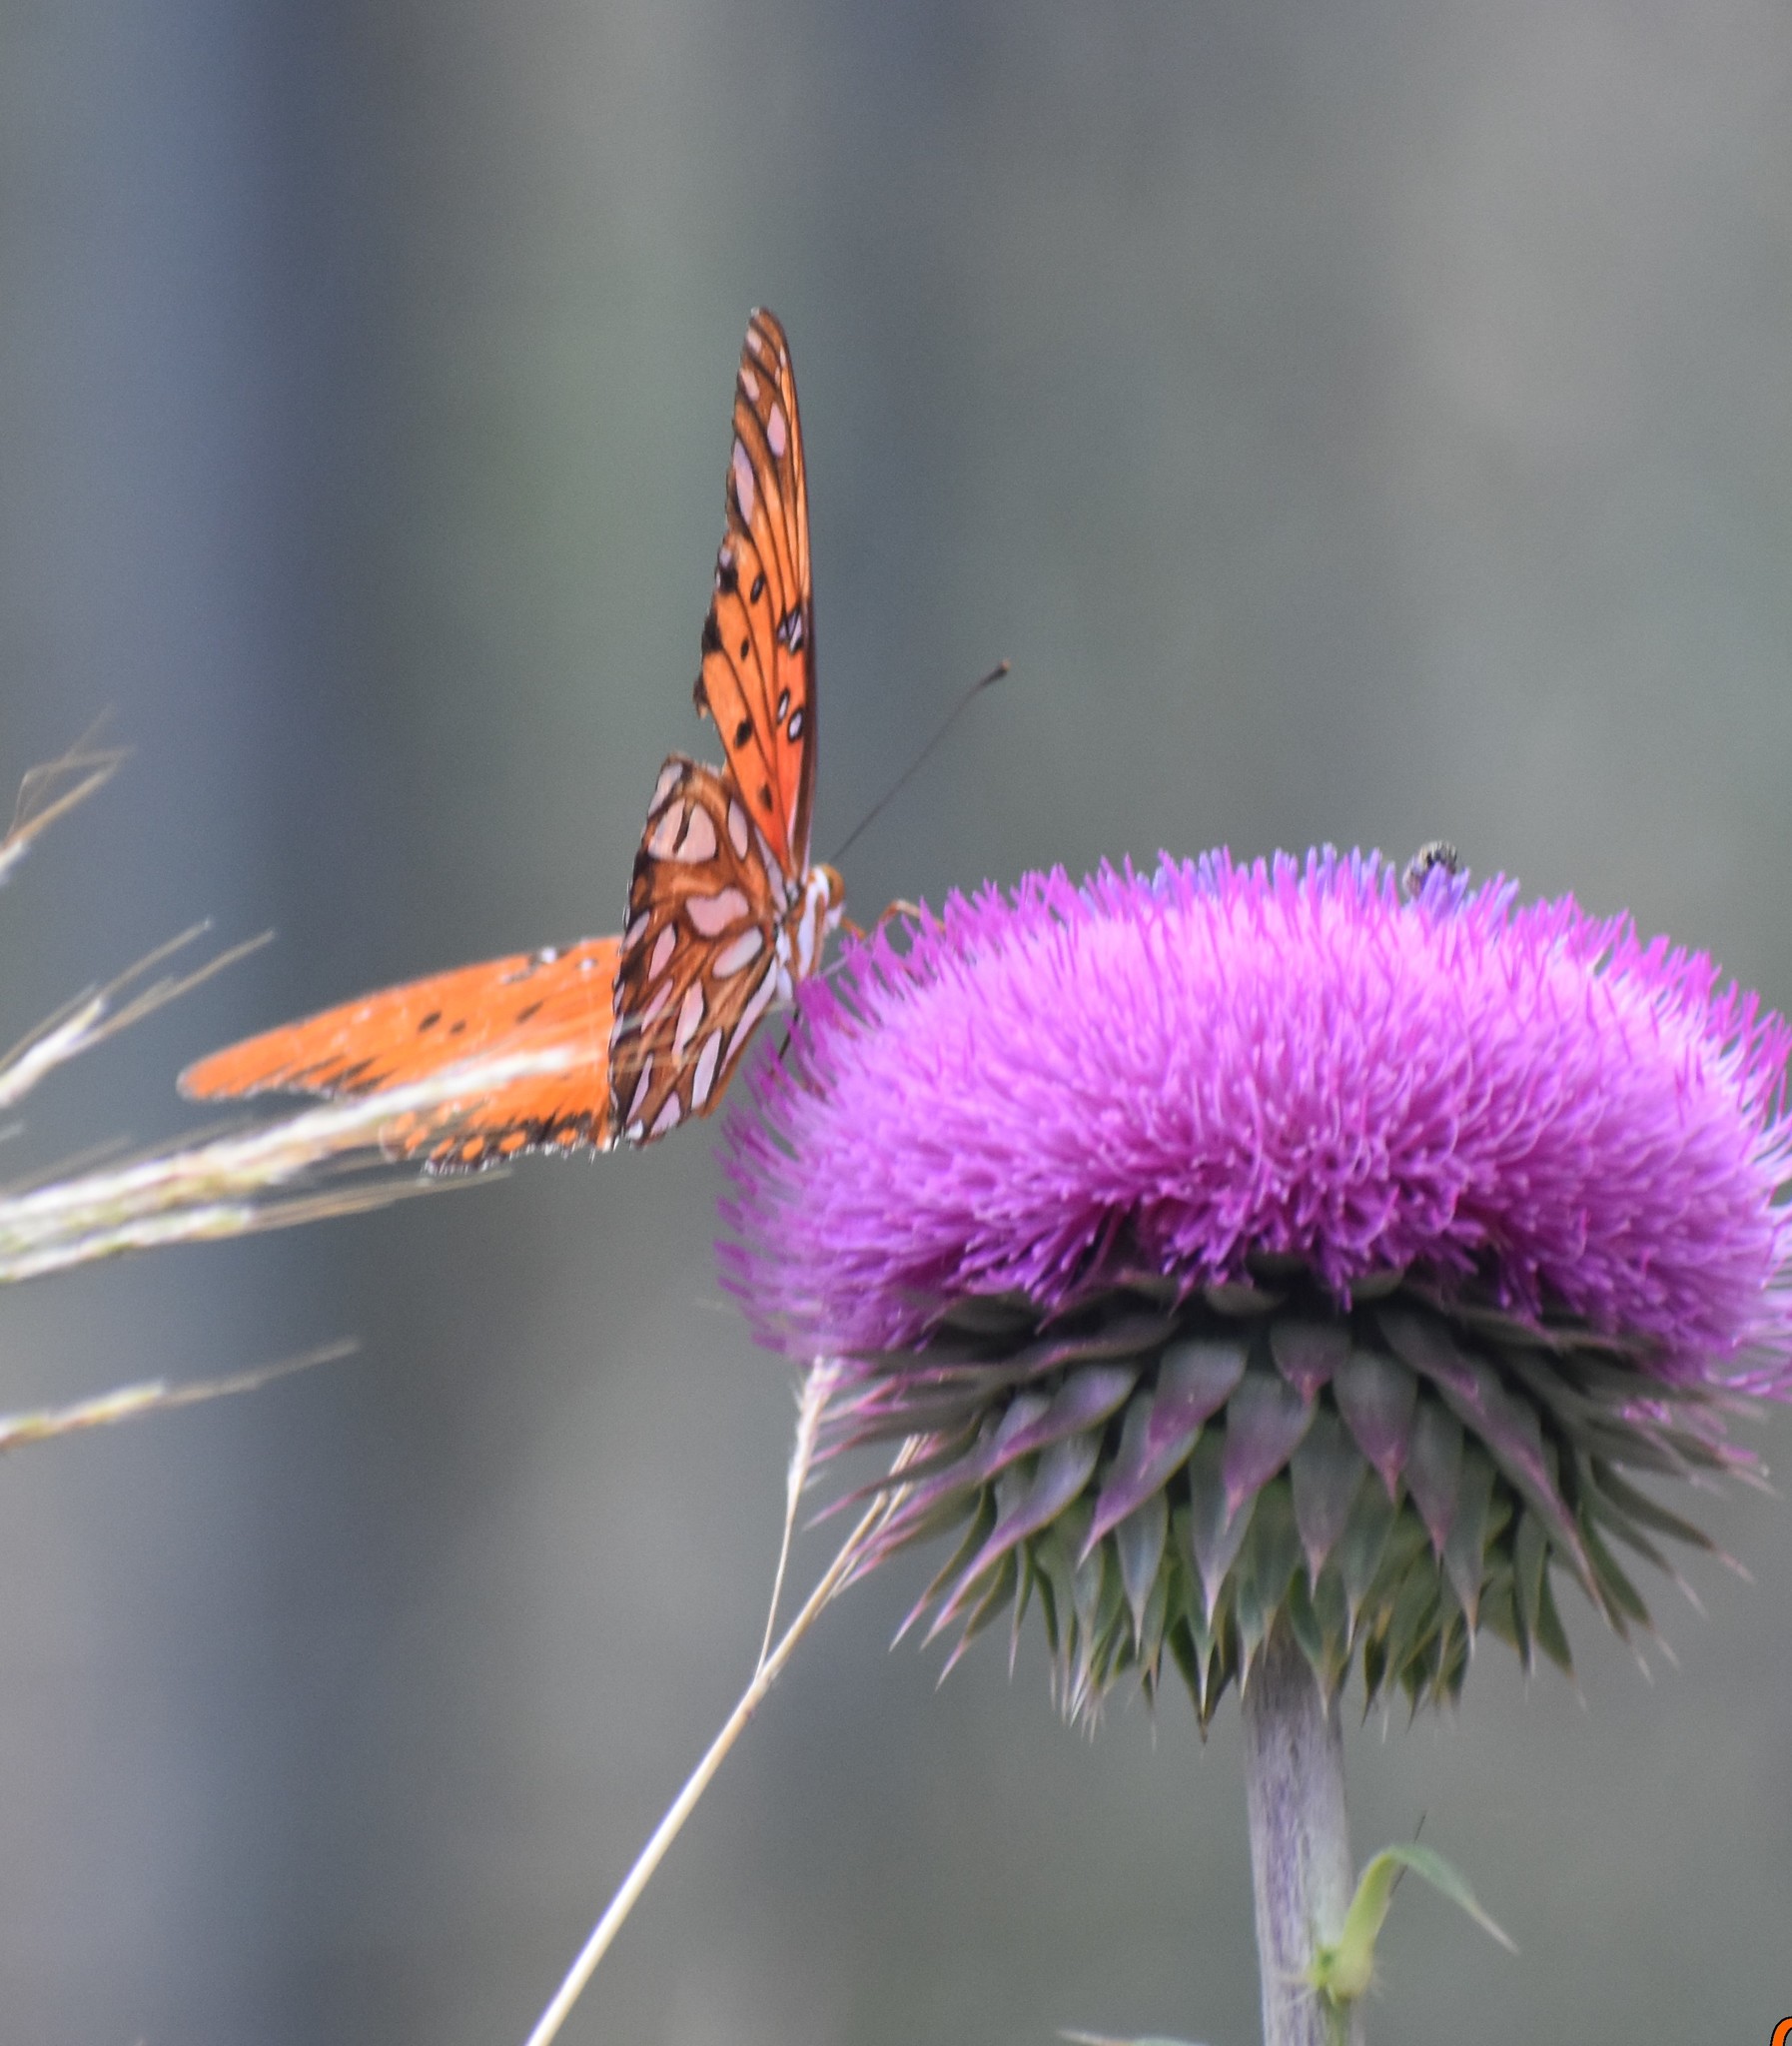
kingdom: Animalia
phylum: Arthropoda
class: Insecta
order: Lepidoptera
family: Nymphalidae
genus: Dione
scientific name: Dione vanillae
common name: Gulf fritillary
